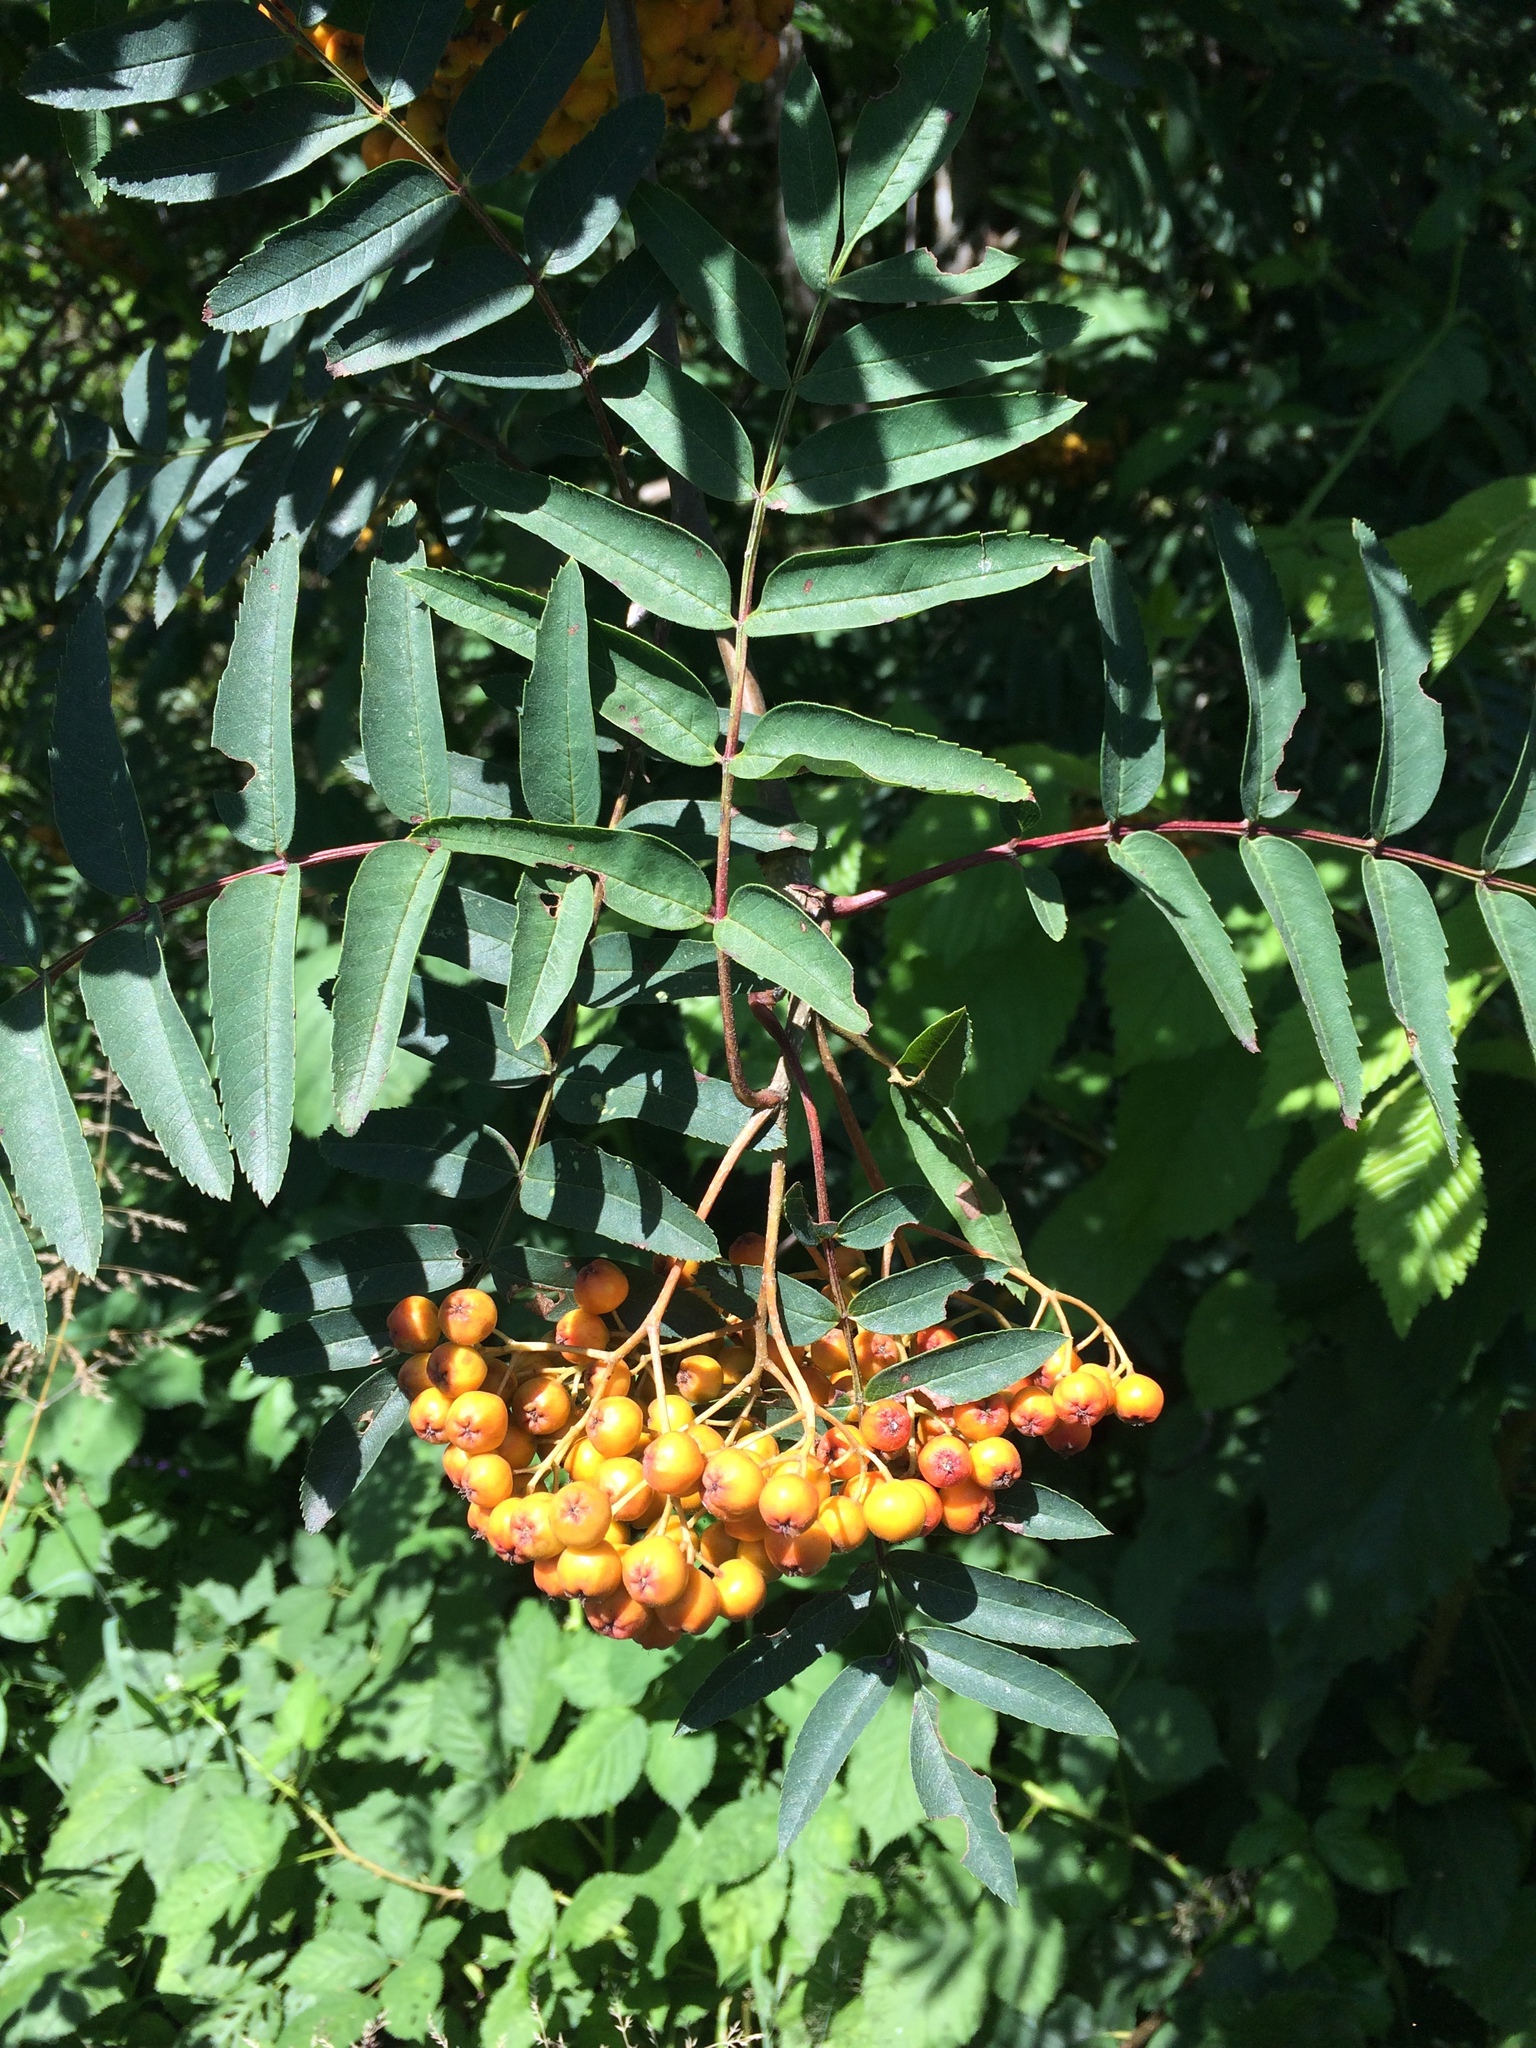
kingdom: Plantae
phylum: Tracheophyta
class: Magnoliopsida
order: Rosales
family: Rosaceae
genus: Sorbus
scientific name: Sorbus aucuparia
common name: Rowan
